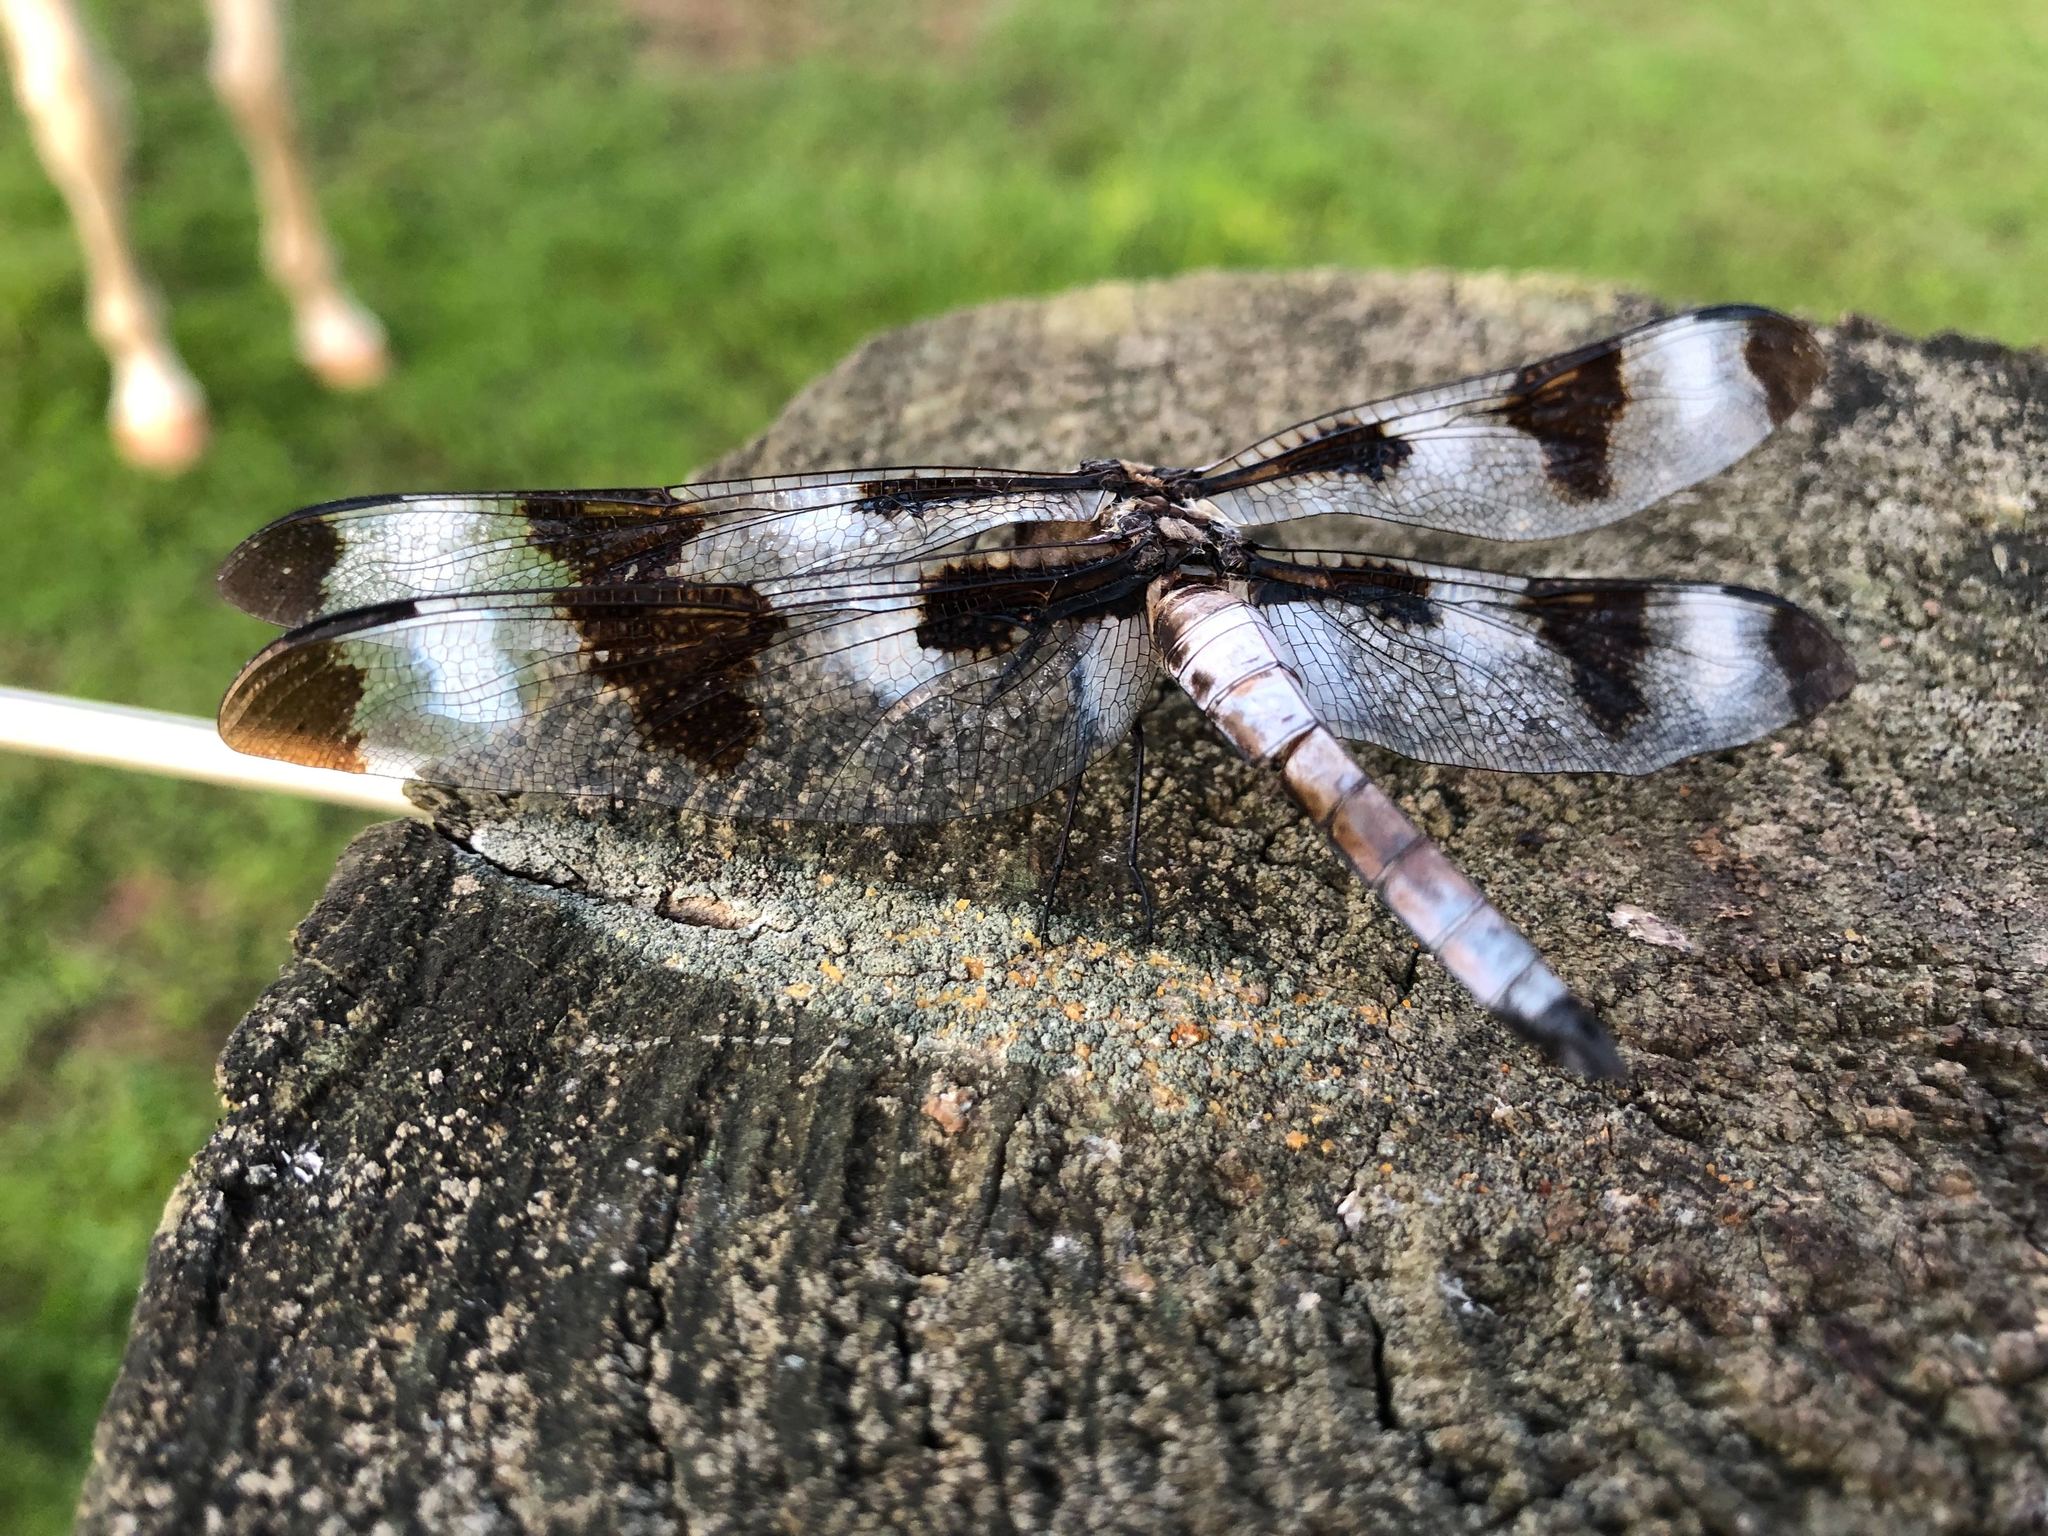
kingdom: Animalia
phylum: Arthropoda
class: Insecta
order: Odonata
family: Libellulidae
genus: Libellula
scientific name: Libellula pulchella
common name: Twelve-spotted skimmer
